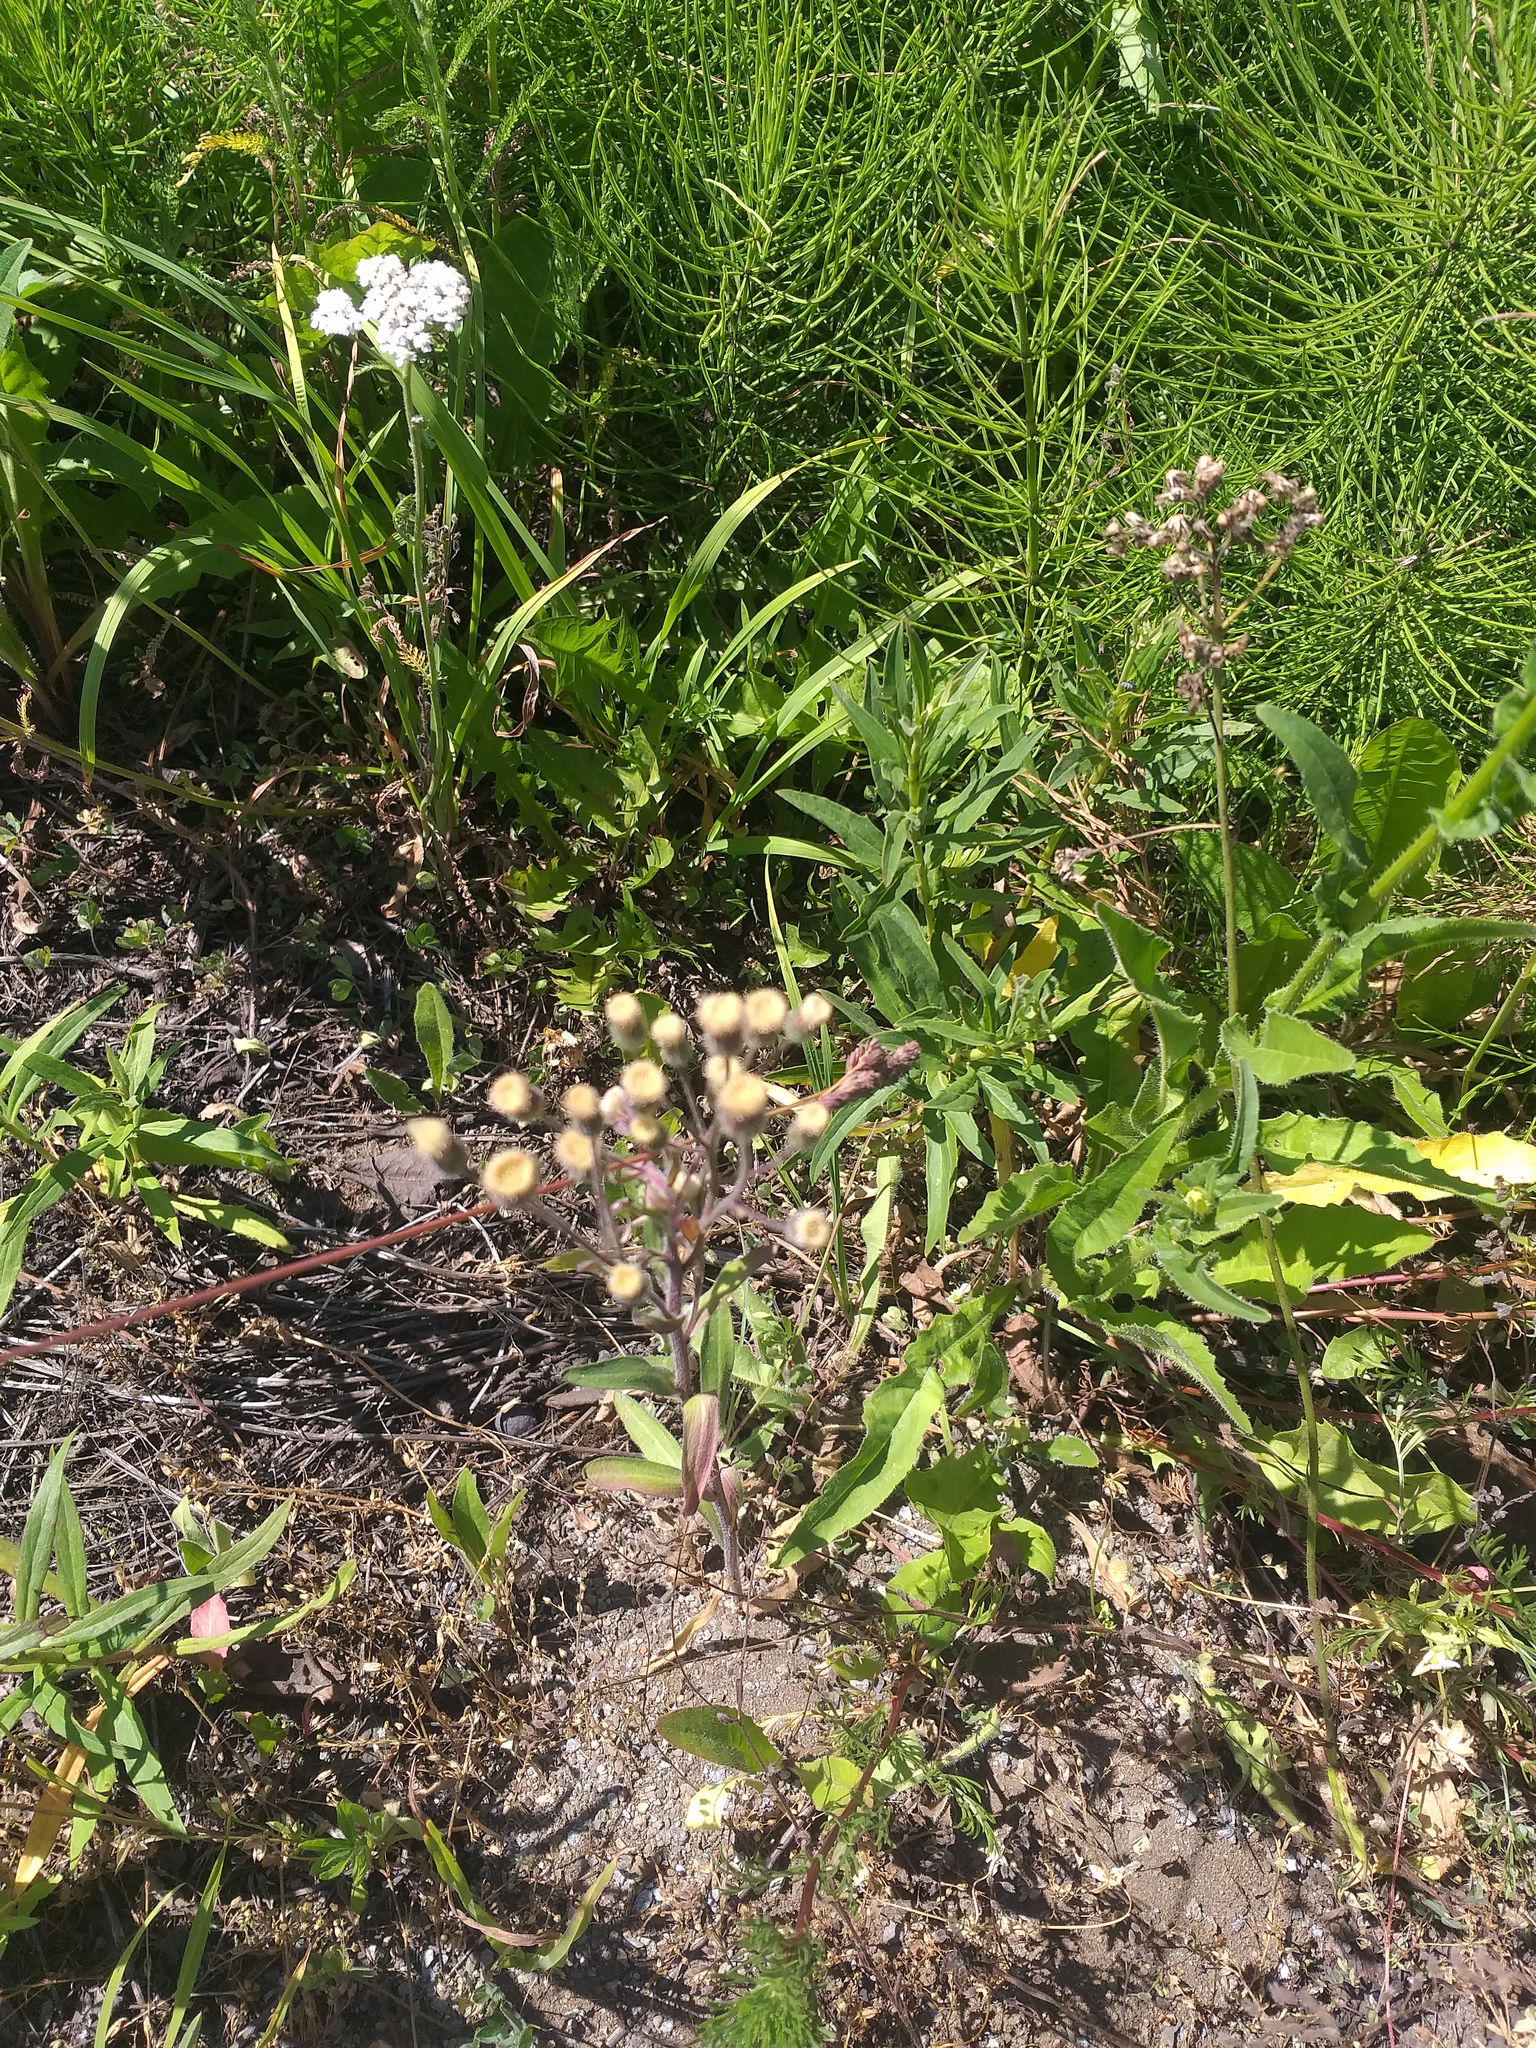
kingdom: Plantae
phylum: Tracheophyta
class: Magnoliopsida
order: Asterales
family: Asteraceae
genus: Erigeron
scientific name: Erigeron acris
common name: Blue fleabane
